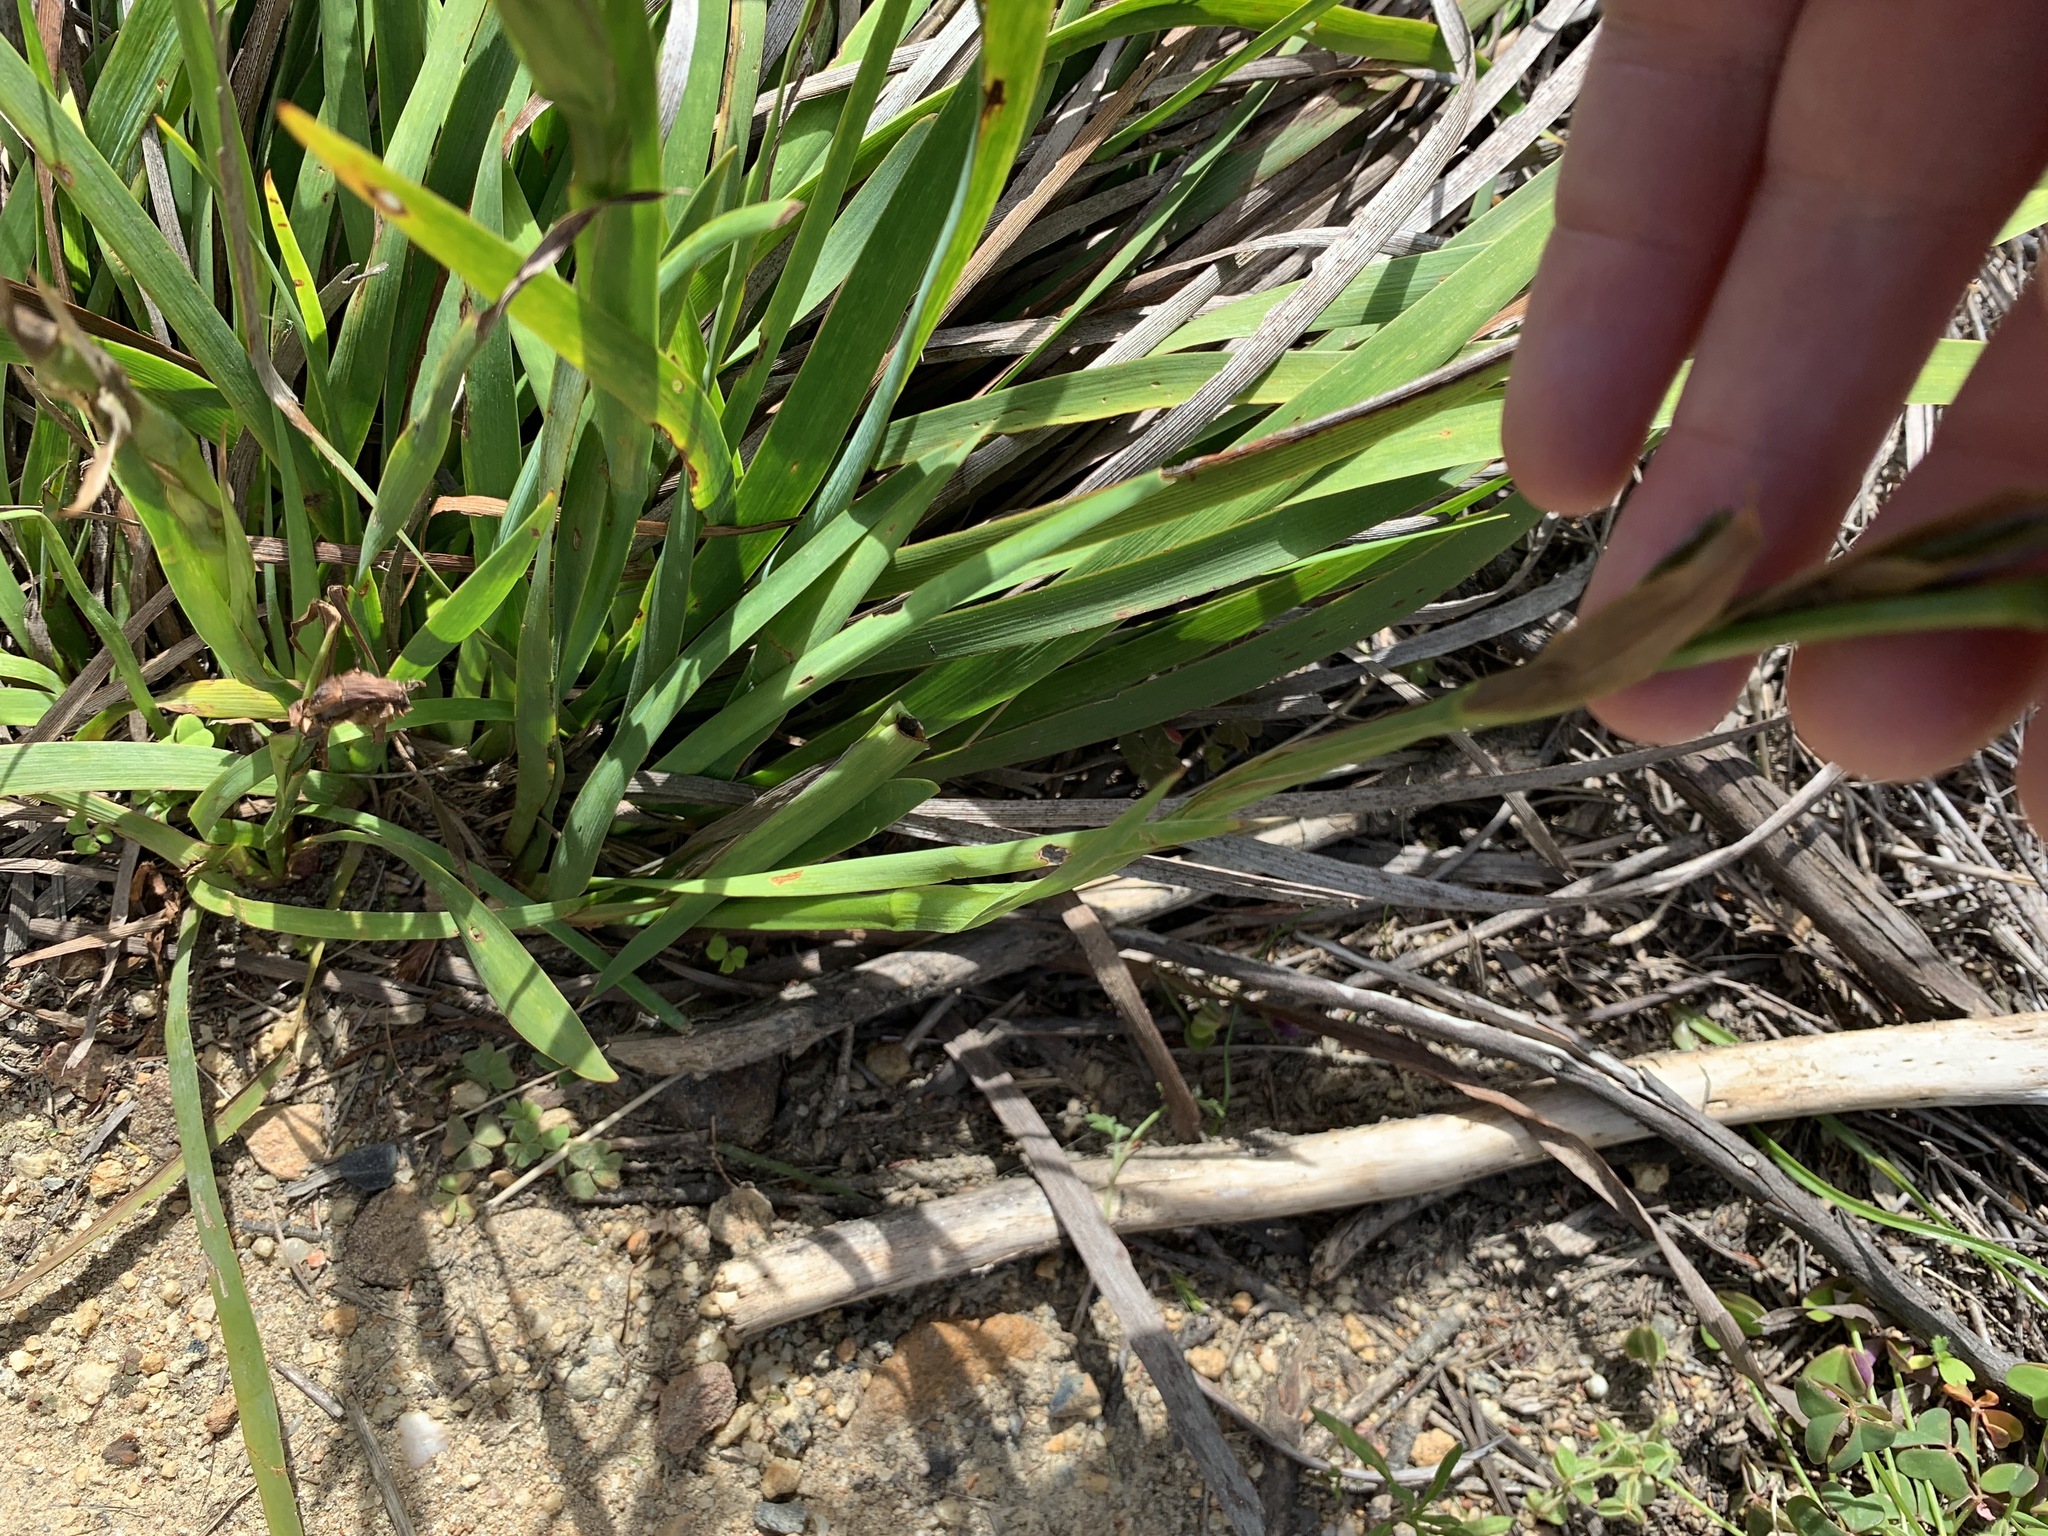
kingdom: Plantae
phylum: Tracheophyta
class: Liliopsida
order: Asparagales
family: Iridaceae
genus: Aristea
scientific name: Aristea spiralis
